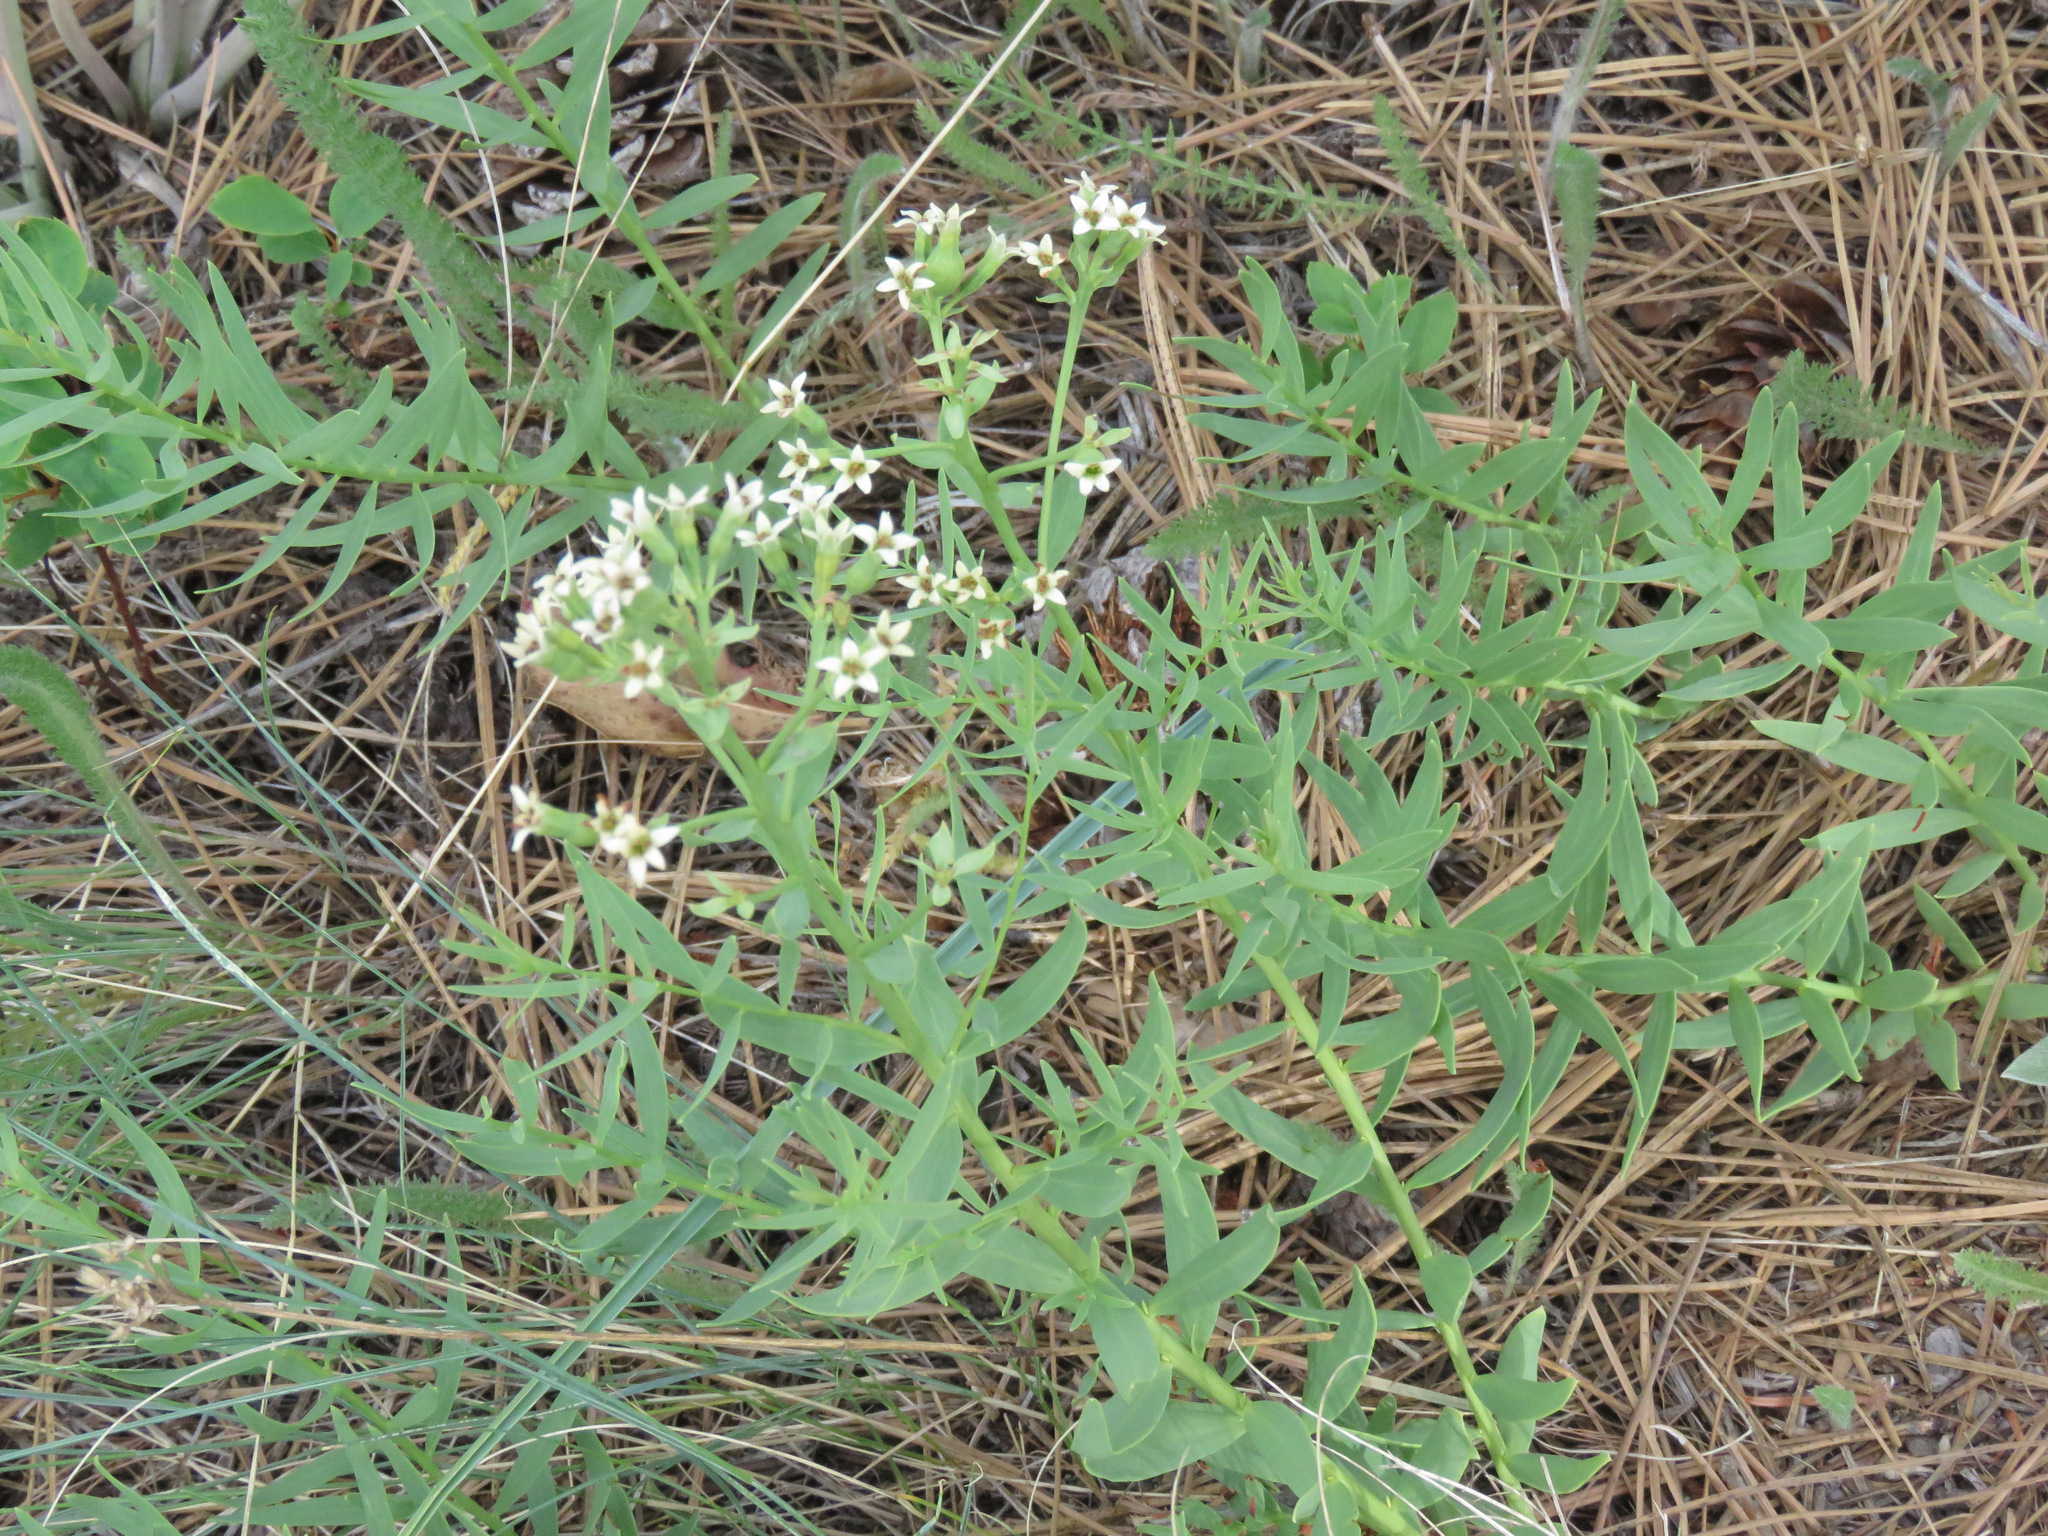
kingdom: Plantae
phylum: Tracheophyta
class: Magnoliopsida
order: Santalales
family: Comandraceae
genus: Comandra
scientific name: Comandra umbellata
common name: Bastard toadflax
